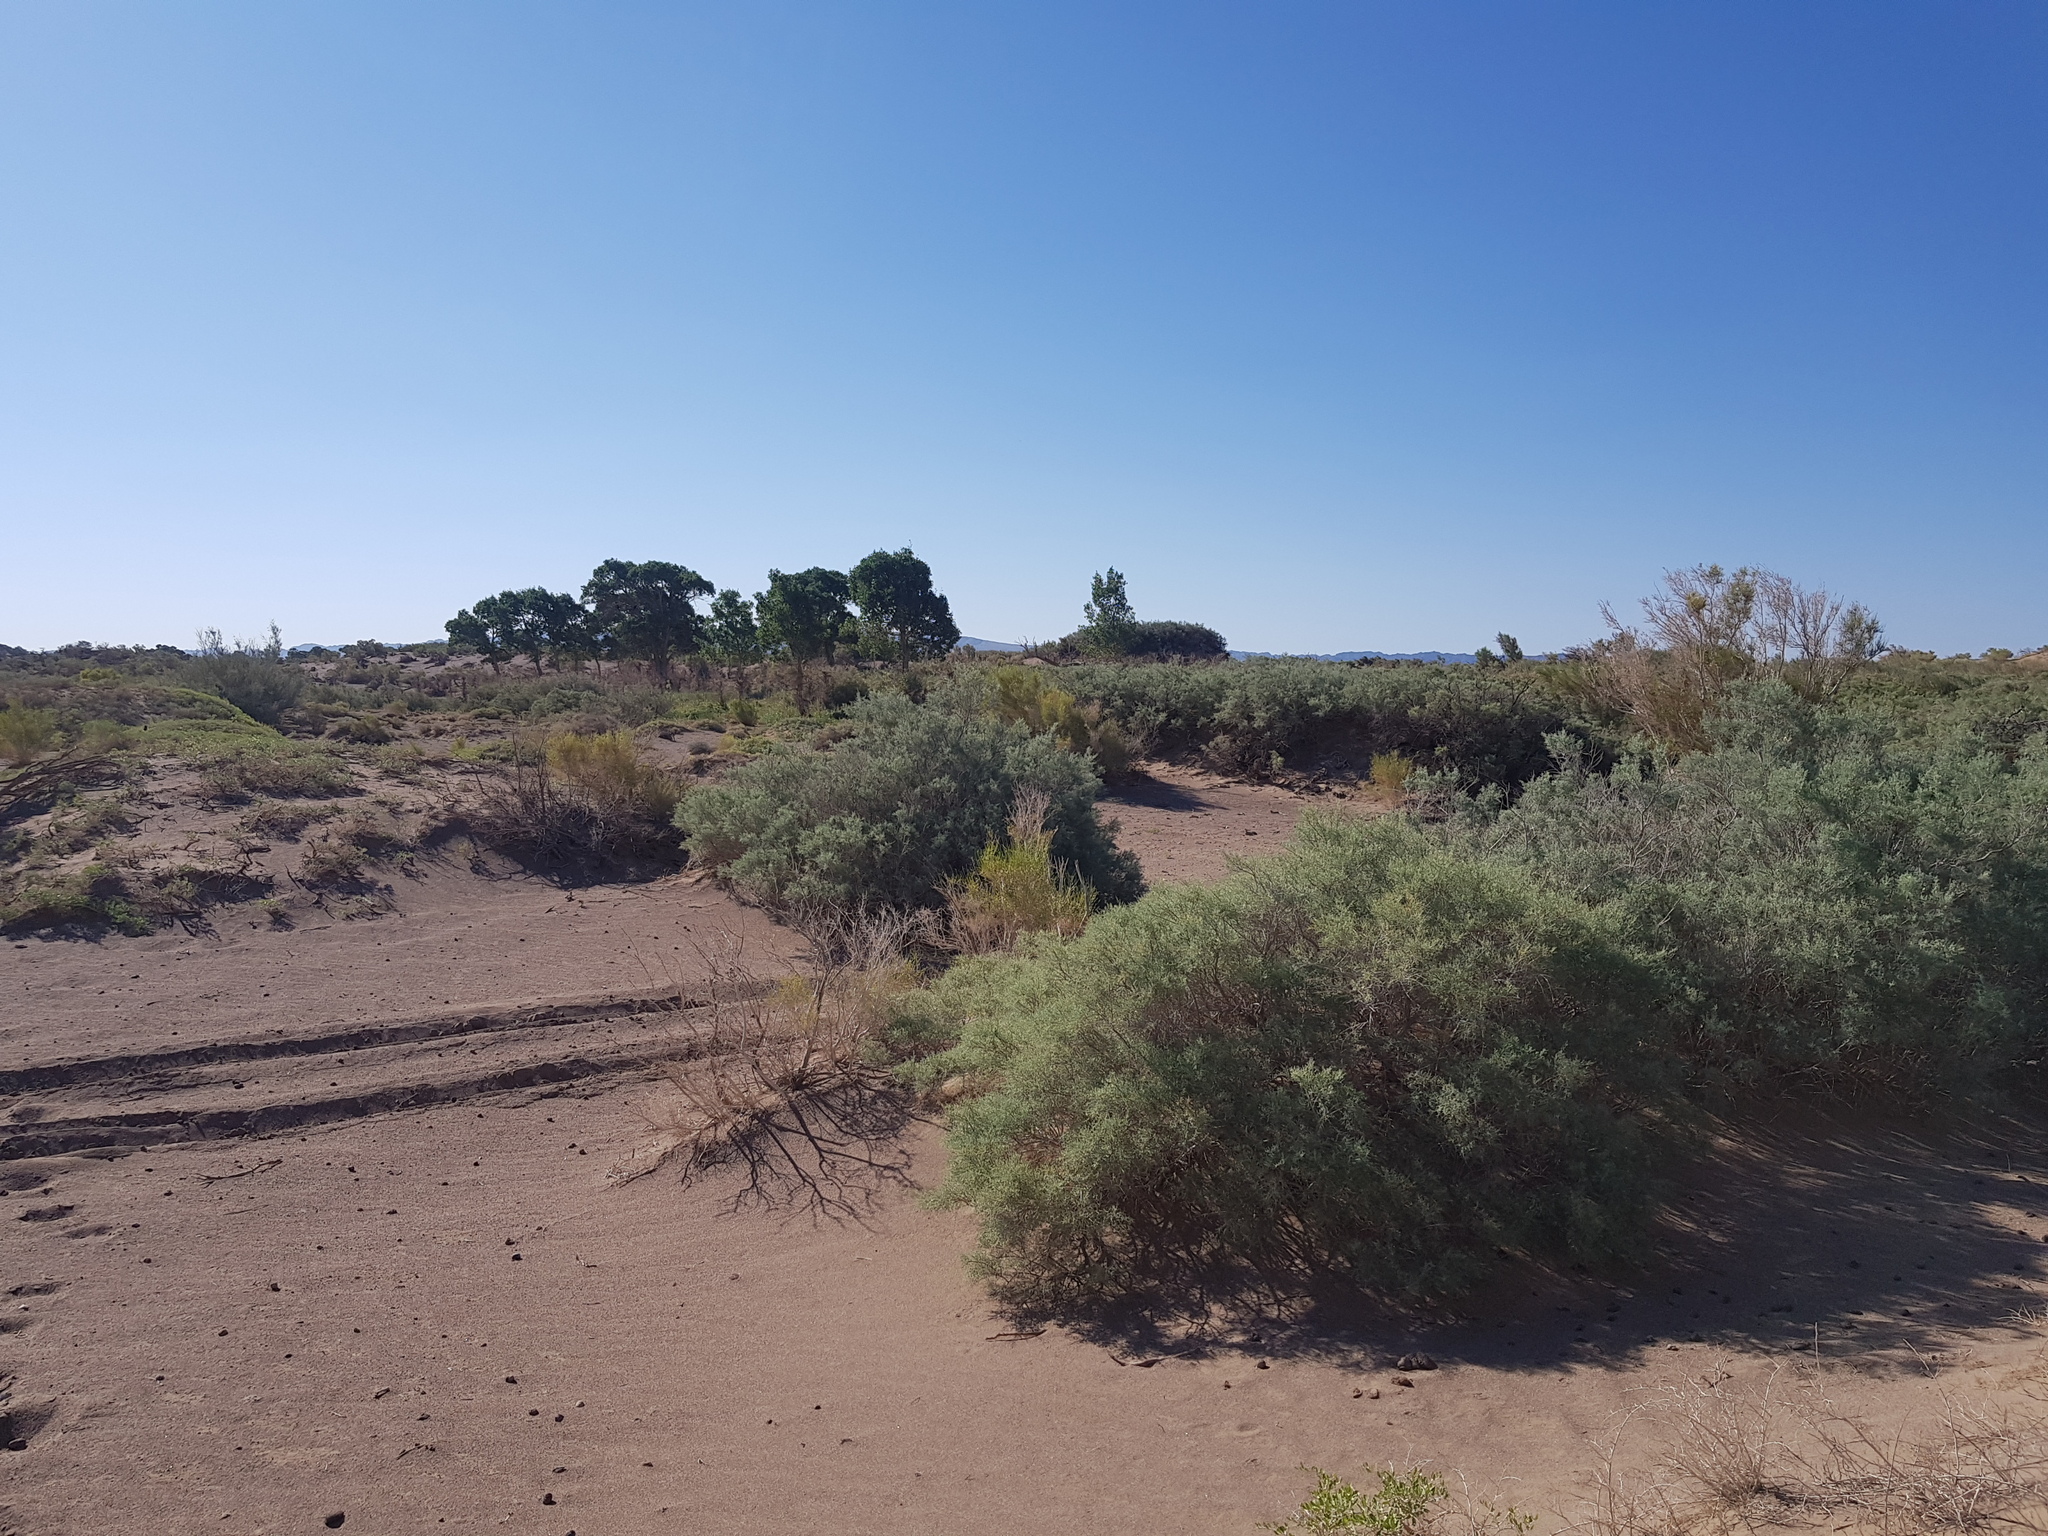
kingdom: Plantae
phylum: Tracheophyta
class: Magnoliopsida
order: Caryophyllales
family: Tamaricaceae
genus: Tamarix
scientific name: Tamarix ramosissima
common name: Pink tamarisk
